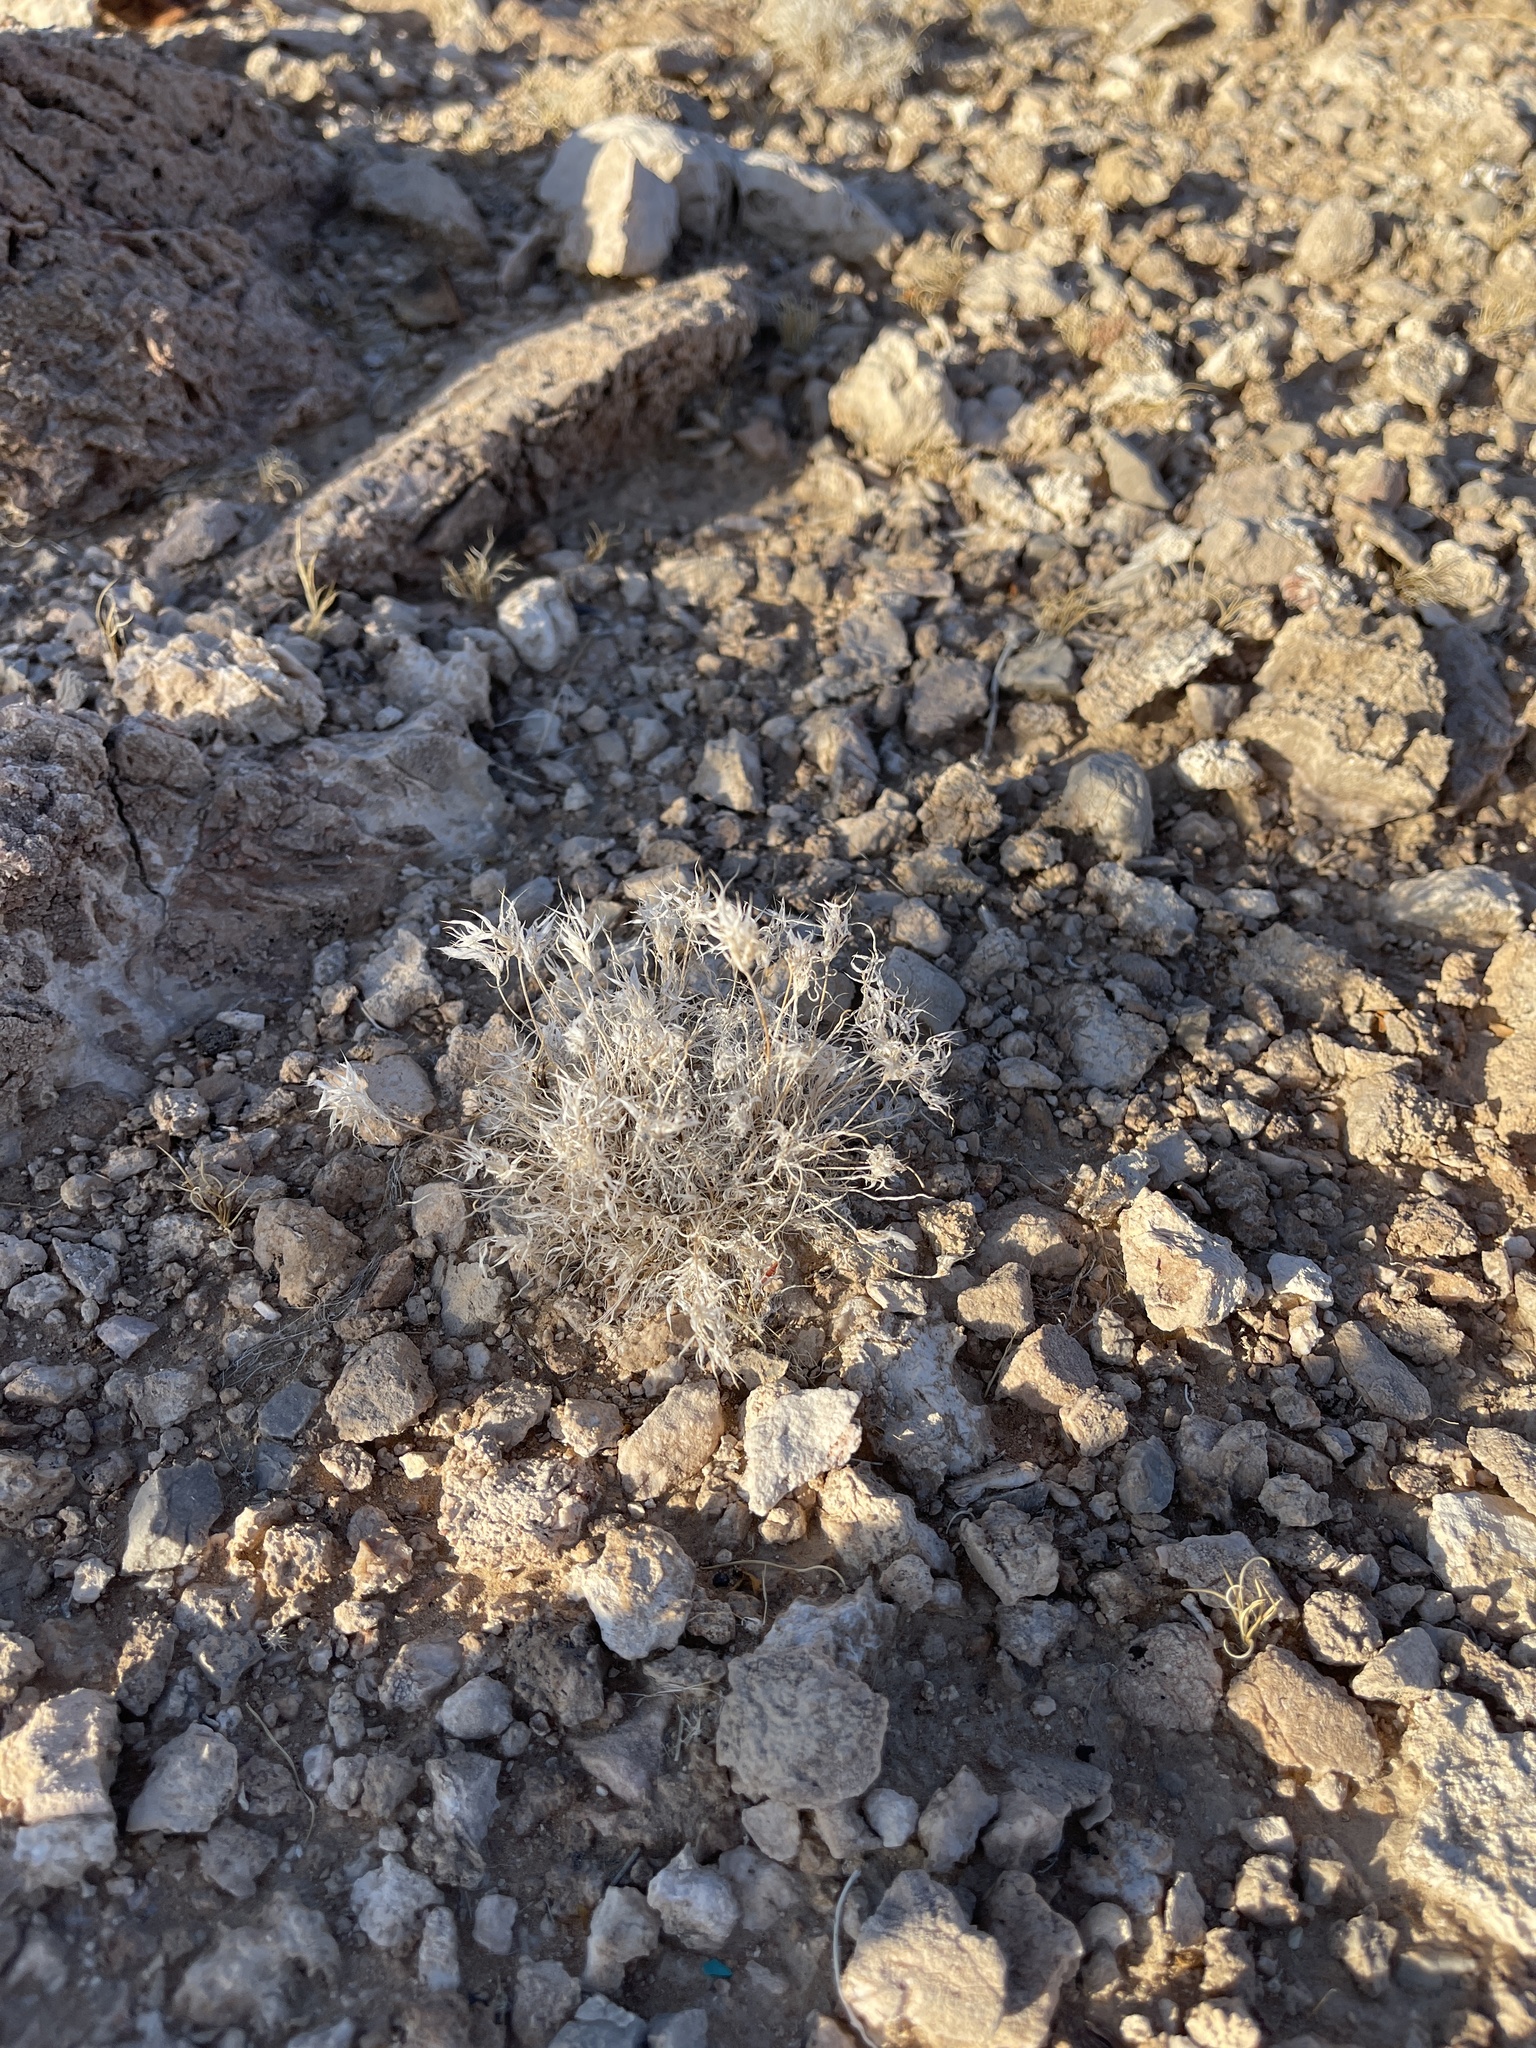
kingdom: Plantae
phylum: Tracheophyta
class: Liliopsida
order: Poales
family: Poaceae
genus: Dasyochloa
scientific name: Dasyochloa pulchella
